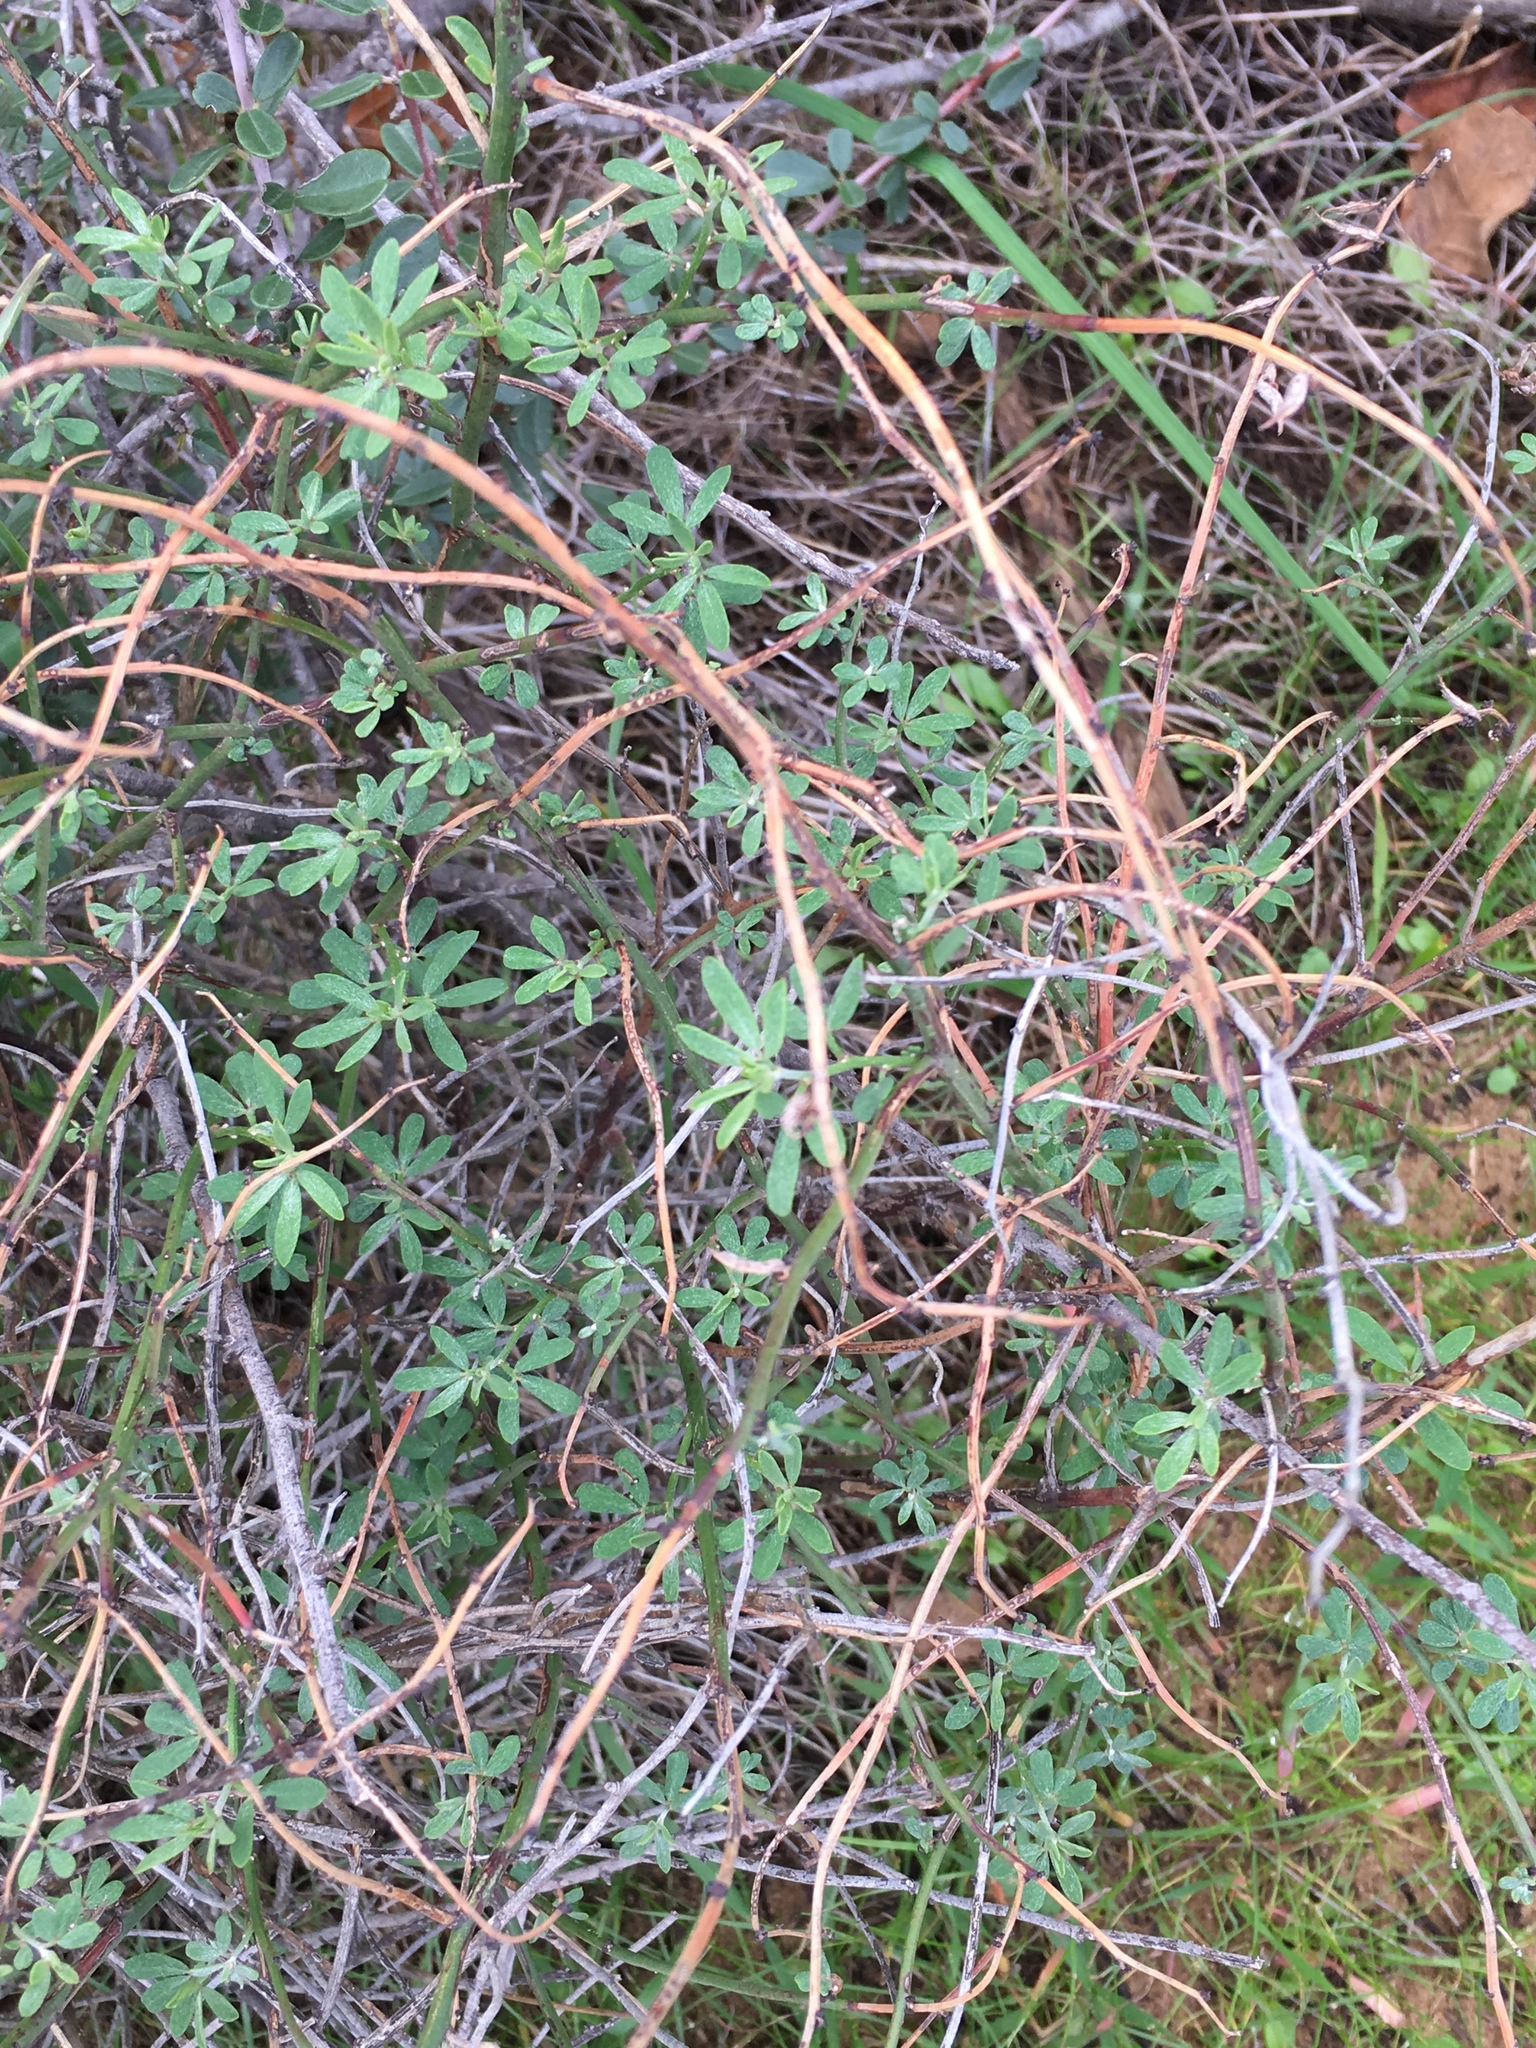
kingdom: Plantae
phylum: Tracheophyta
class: Magnoliopsida
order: Fabales
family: Fabaceae
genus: Acmispon
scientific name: Acmispon glaber
